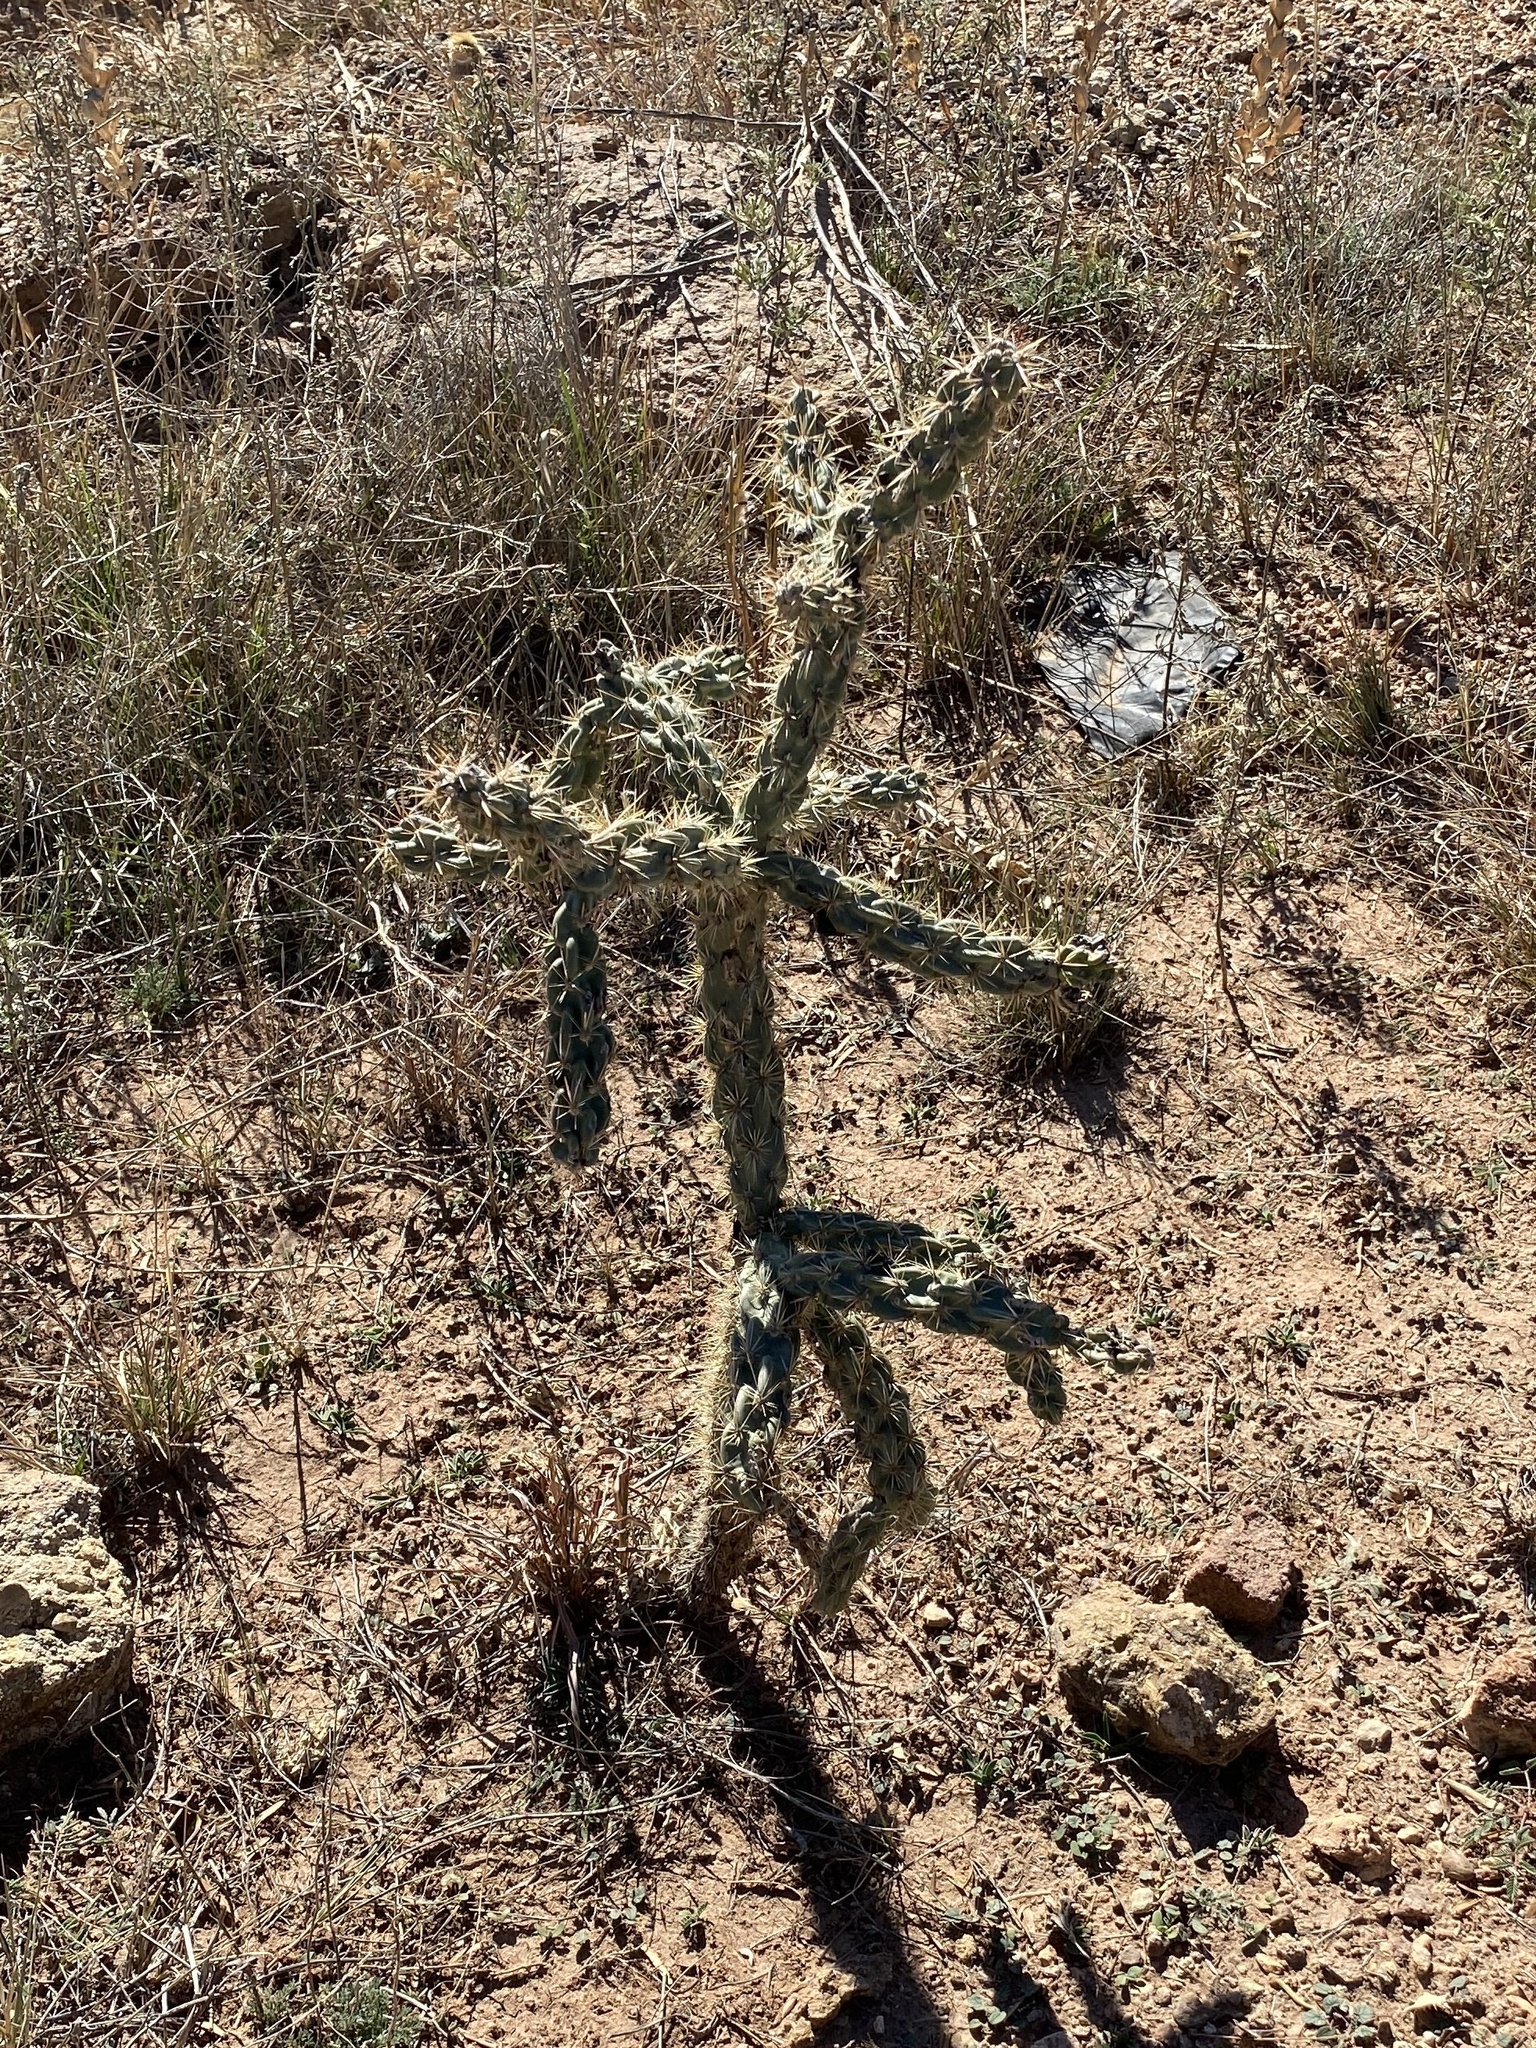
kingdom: Plantae
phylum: Tracheophyta
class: Magnoliopsida
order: Caryophyllales
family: Cactaceae
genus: Cylindropuntia
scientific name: Cylindropuntia imbricata
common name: Candelabrum cactus
